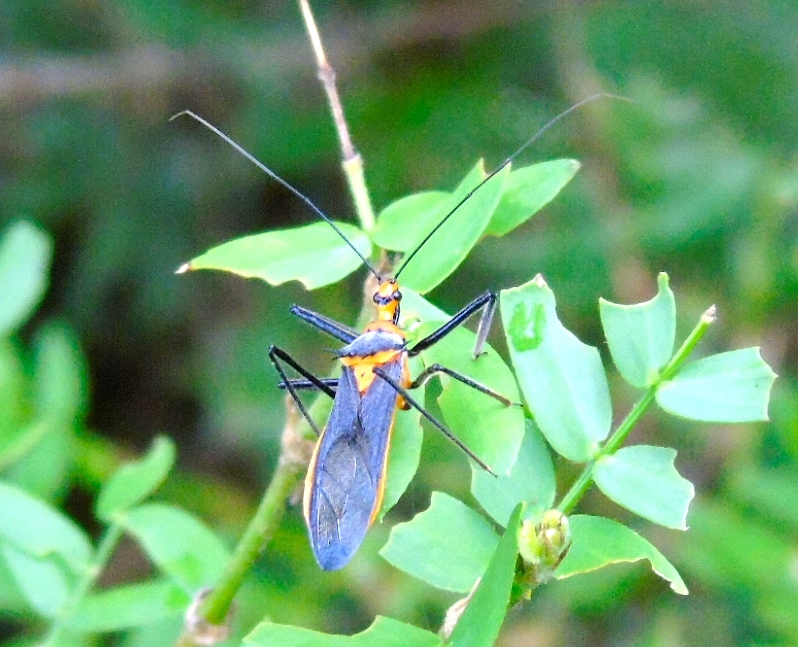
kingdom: Animalia
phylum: Arthropoda
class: Insecta
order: Hemiptera
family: Reduviidae
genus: Repipta
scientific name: Repipta fuscipes
